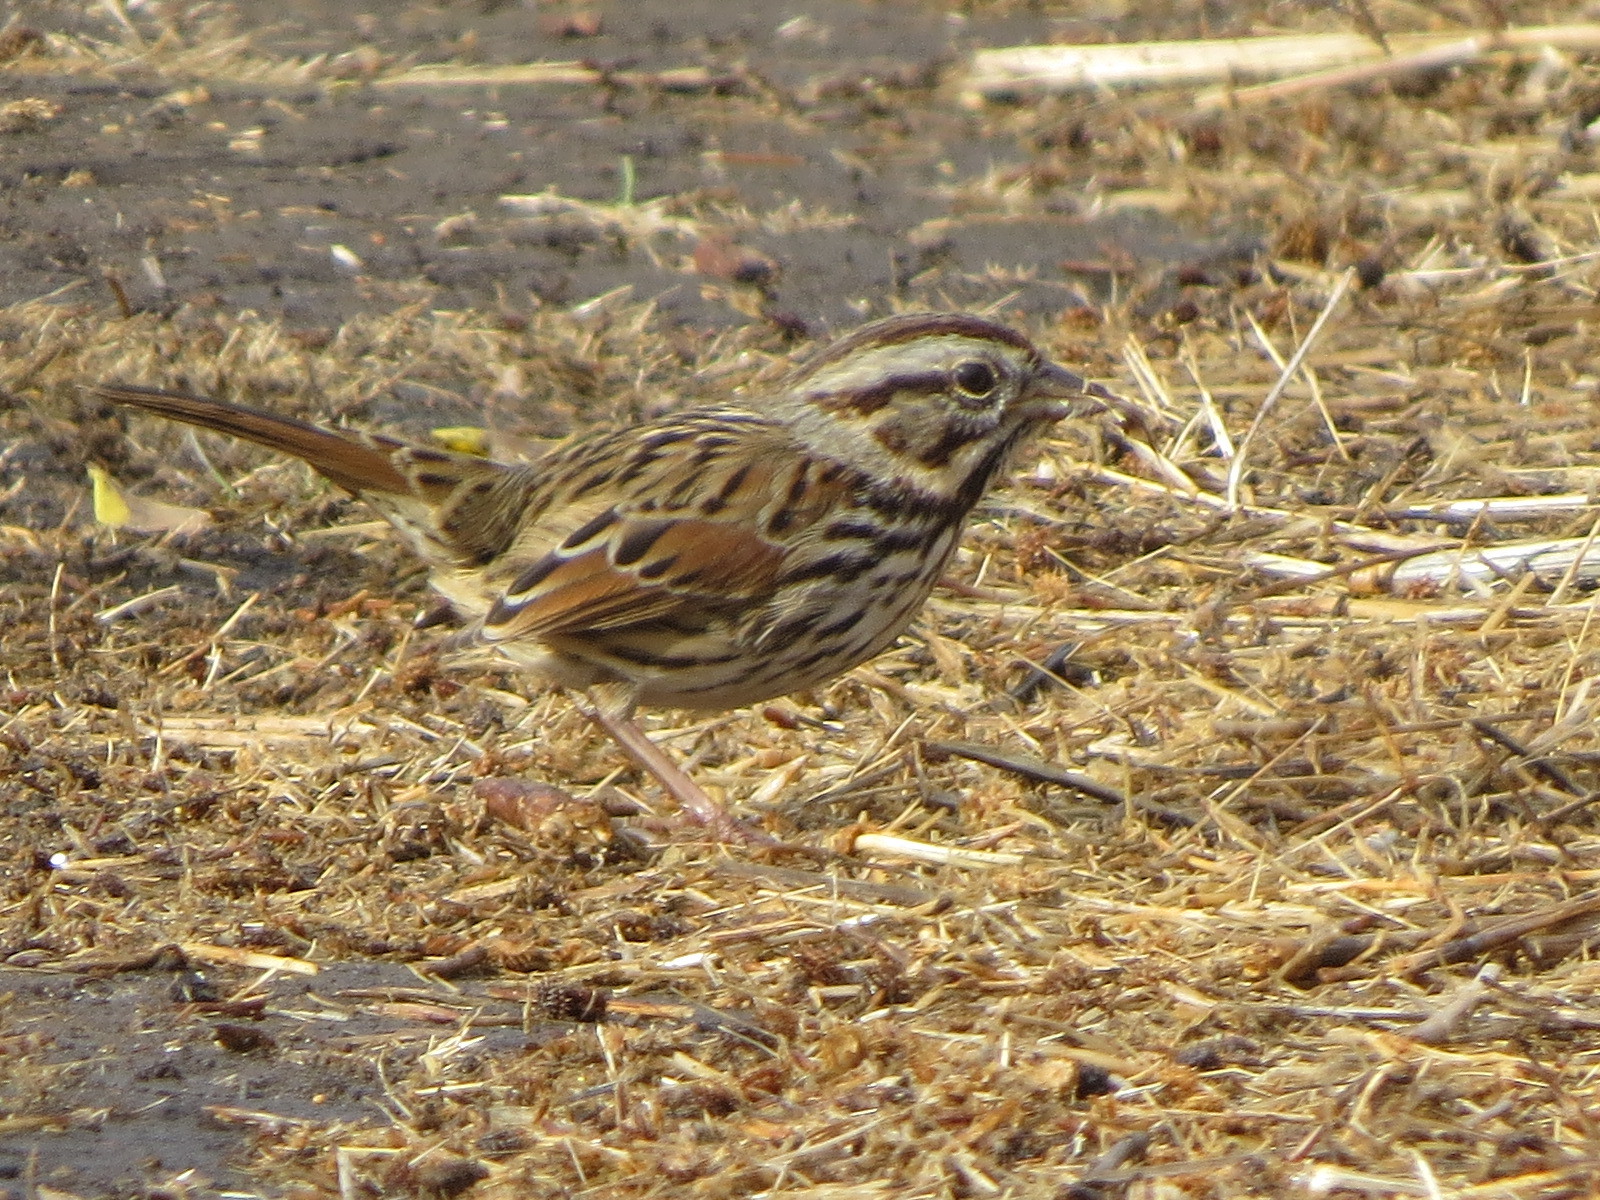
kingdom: Animalia
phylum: Chordata
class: Aves
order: Passeriformes
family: Passerellidae
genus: Melospiza
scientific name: Melospiza melodia
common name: Song sparrow
